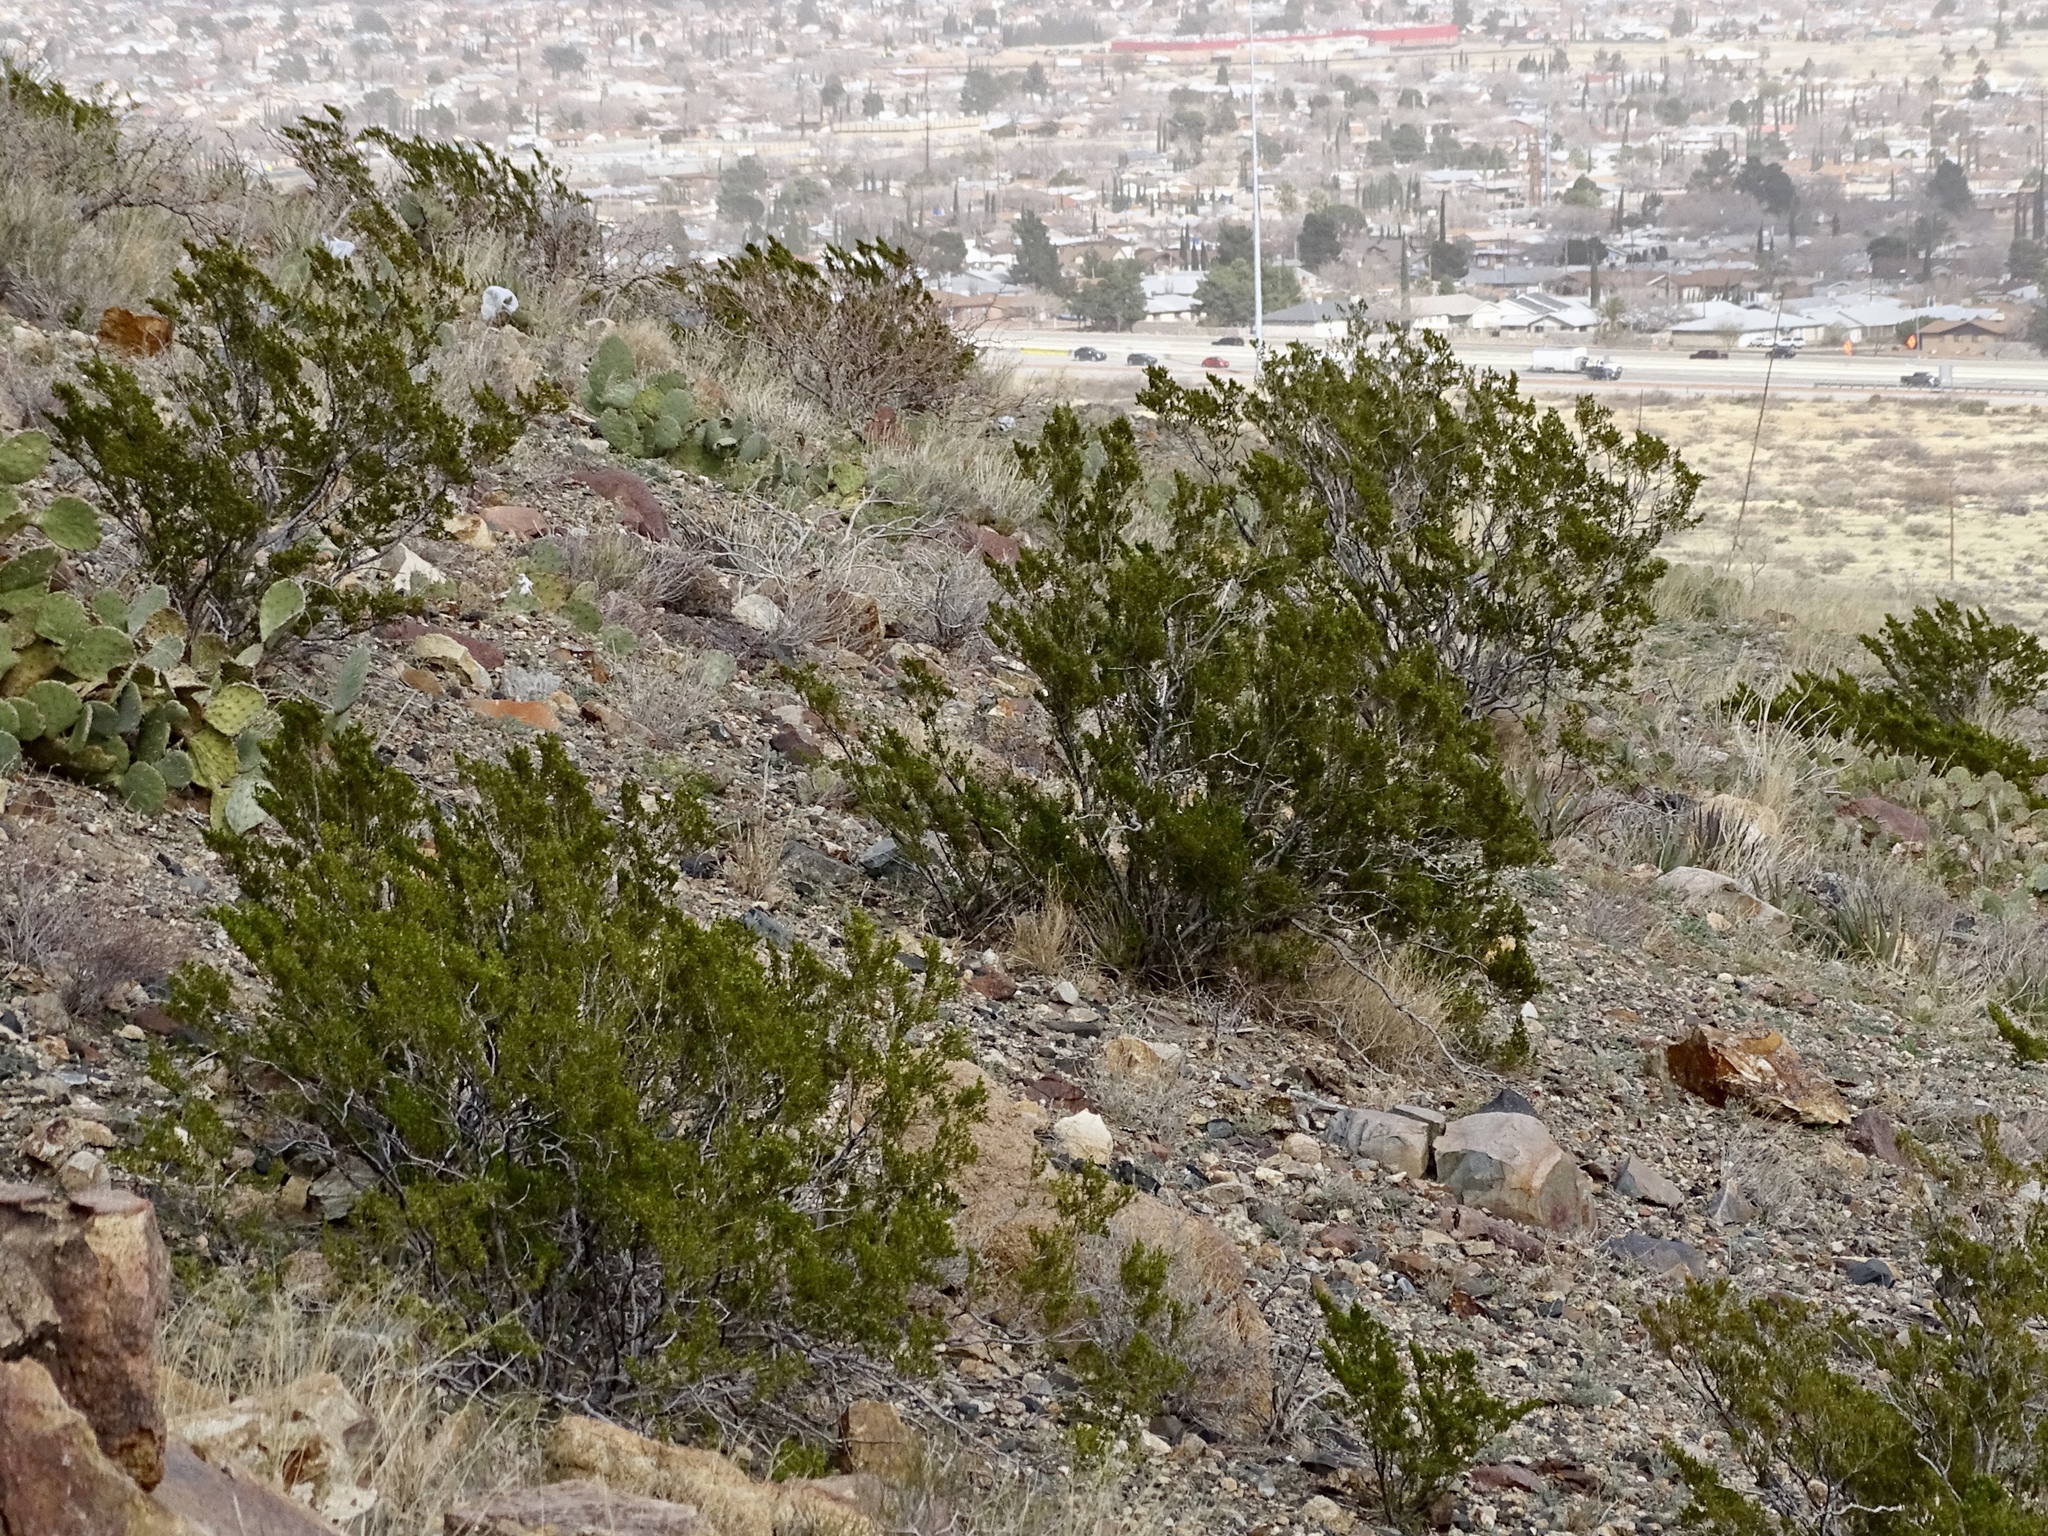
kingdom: Plantae
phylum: Tracheophyta
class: Magnoliopsida
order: Zygophyllales
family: Zygophyllaceae
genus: Larrea
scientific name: Larrea tridentata
